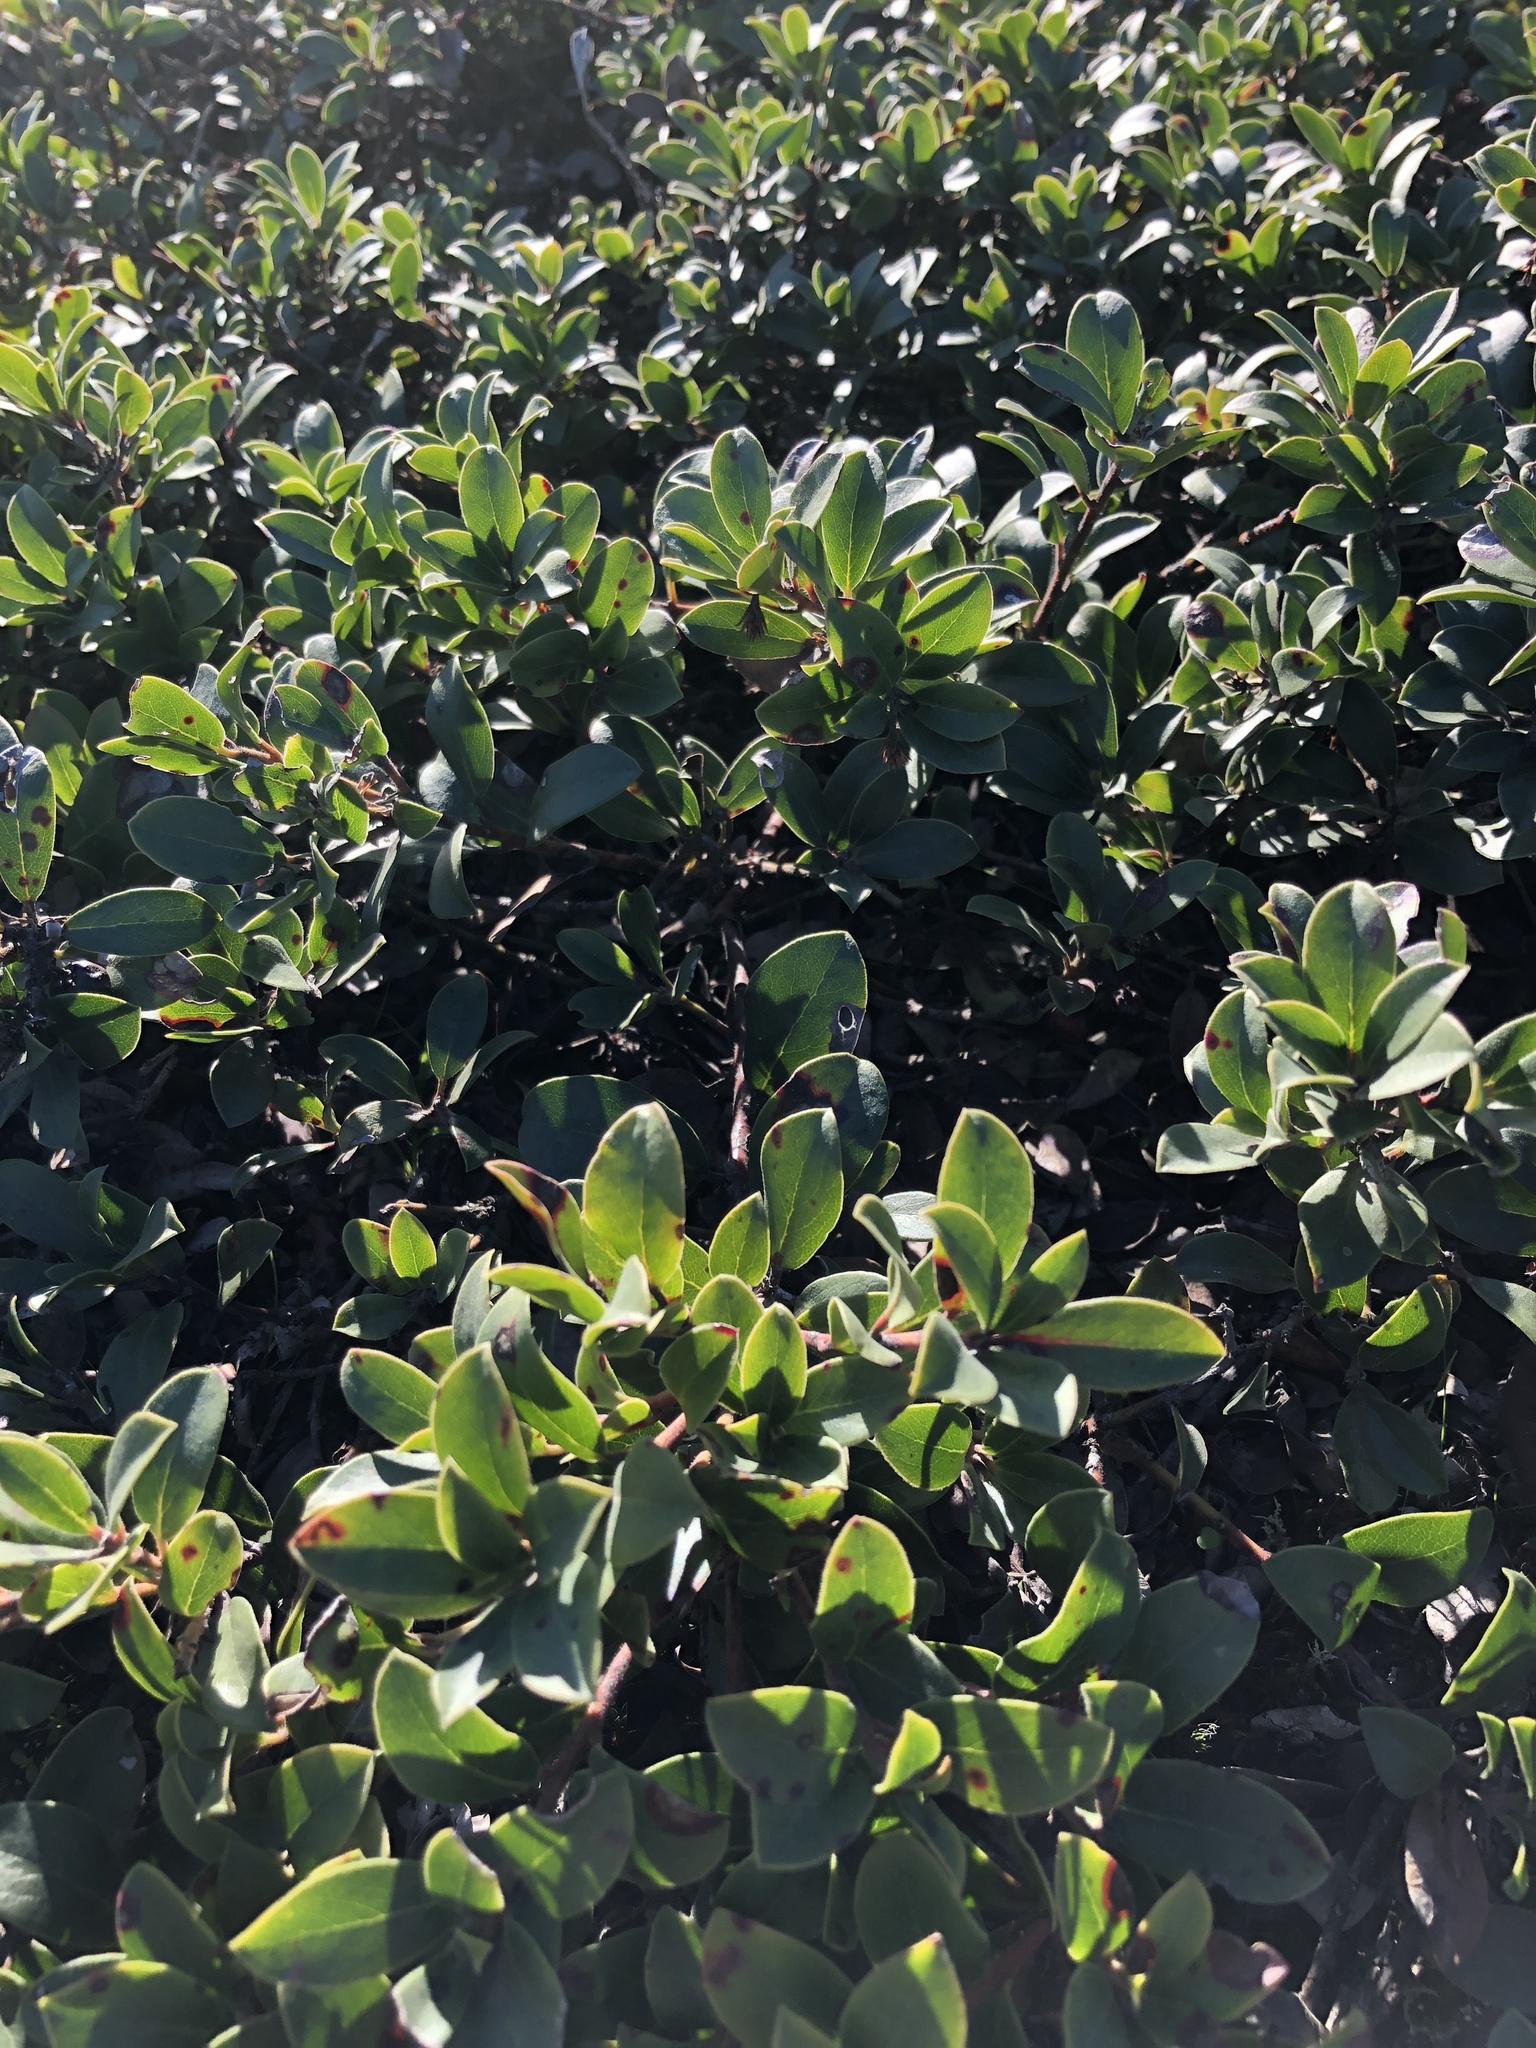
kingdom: Plantae
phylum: Tracheophyta
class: Magnoliopsida
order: Ericales
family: Ericaceae
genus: Arctostaphylos
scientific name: Arctostaphylos uva-ursi
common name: Bearberry
